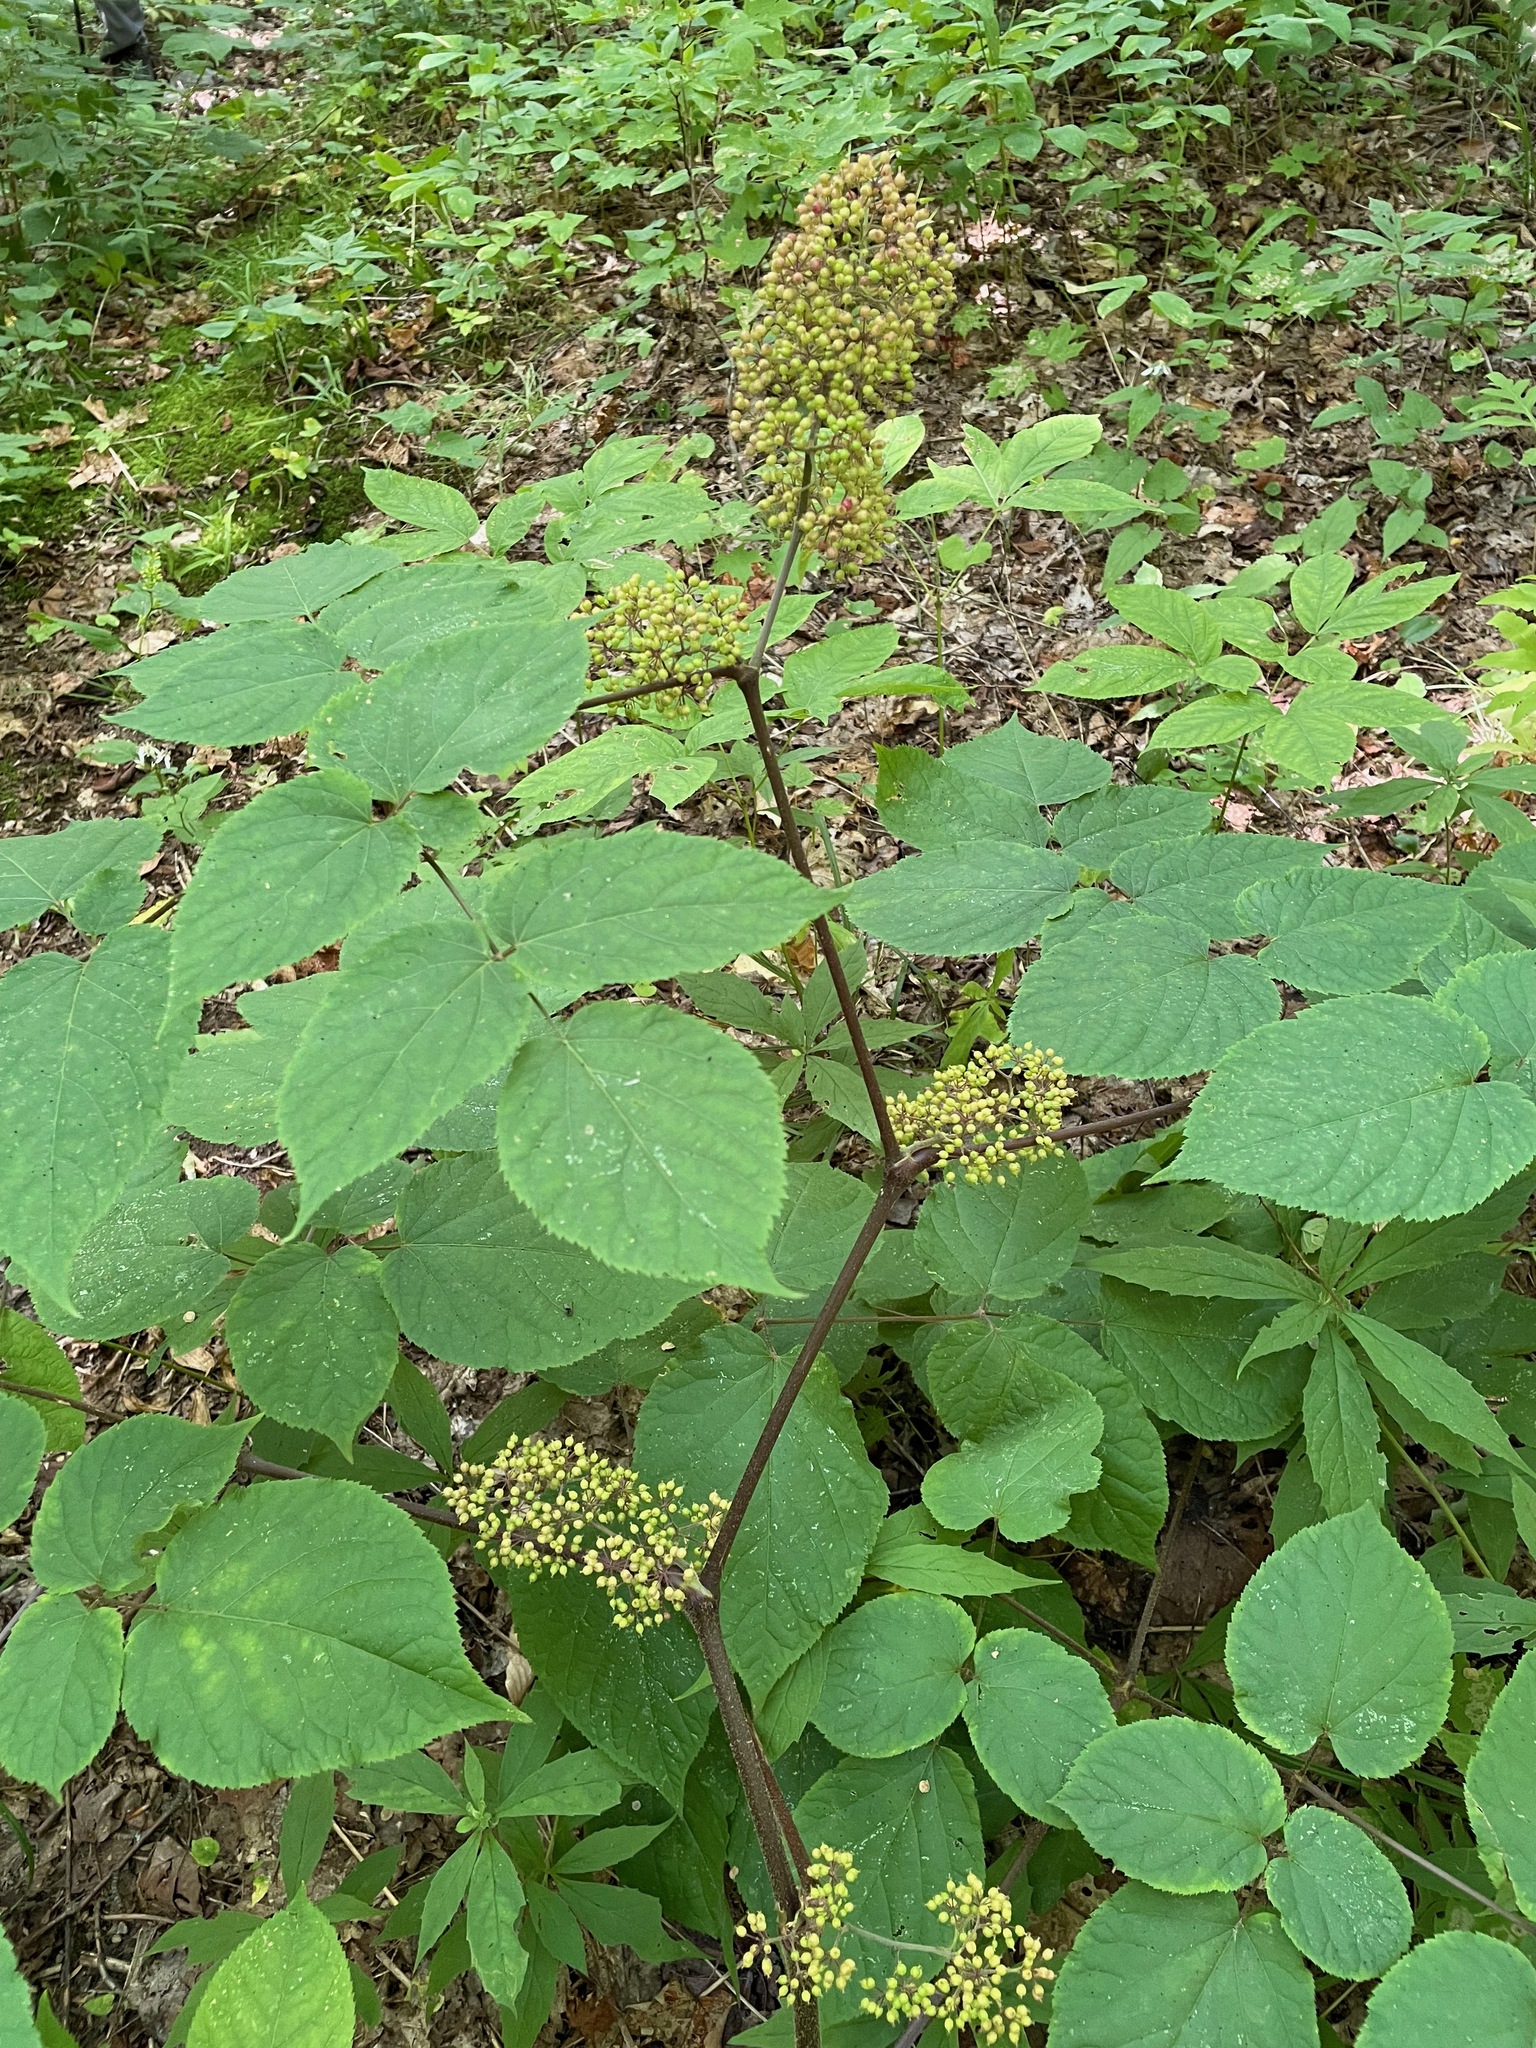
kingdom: Plantae
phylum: Tracheophyta
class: Magnoliopsida
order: Apiales
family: Araliaceae
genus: Aralia
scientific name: Aralia racemosa
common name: American-spikenard
